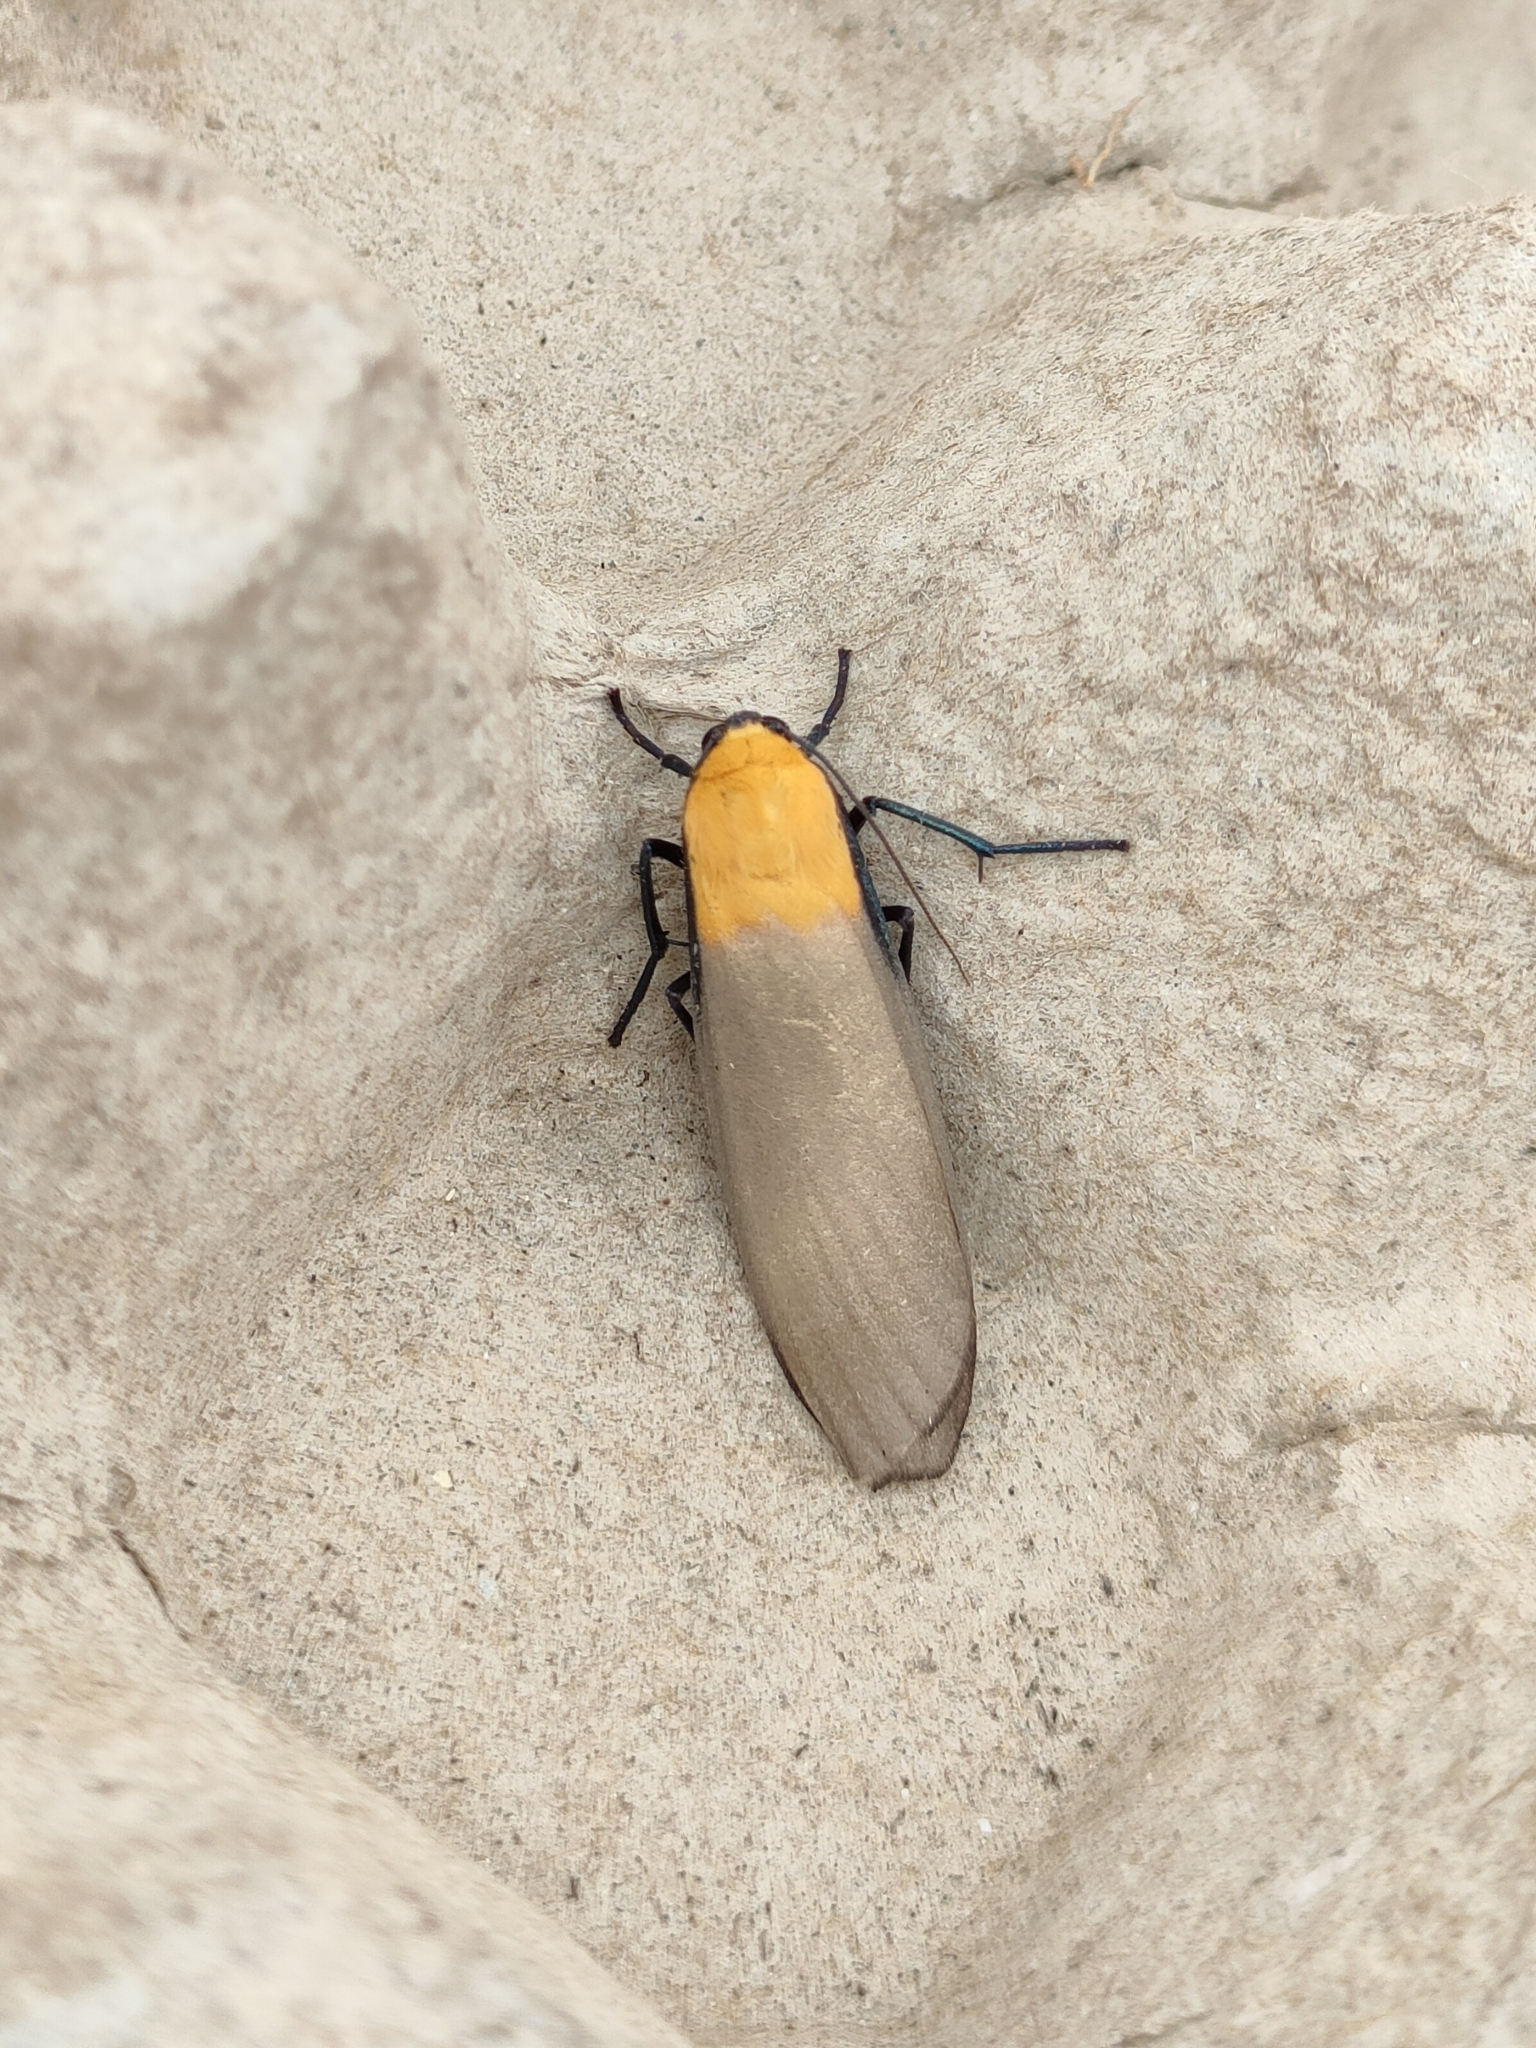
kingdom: Animalia
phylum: Arthropoda
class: Insecta
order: Lepidoptera
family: Erebidae
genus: Lithosia
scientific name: Lithosia quadra
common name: Four-spotted footman
